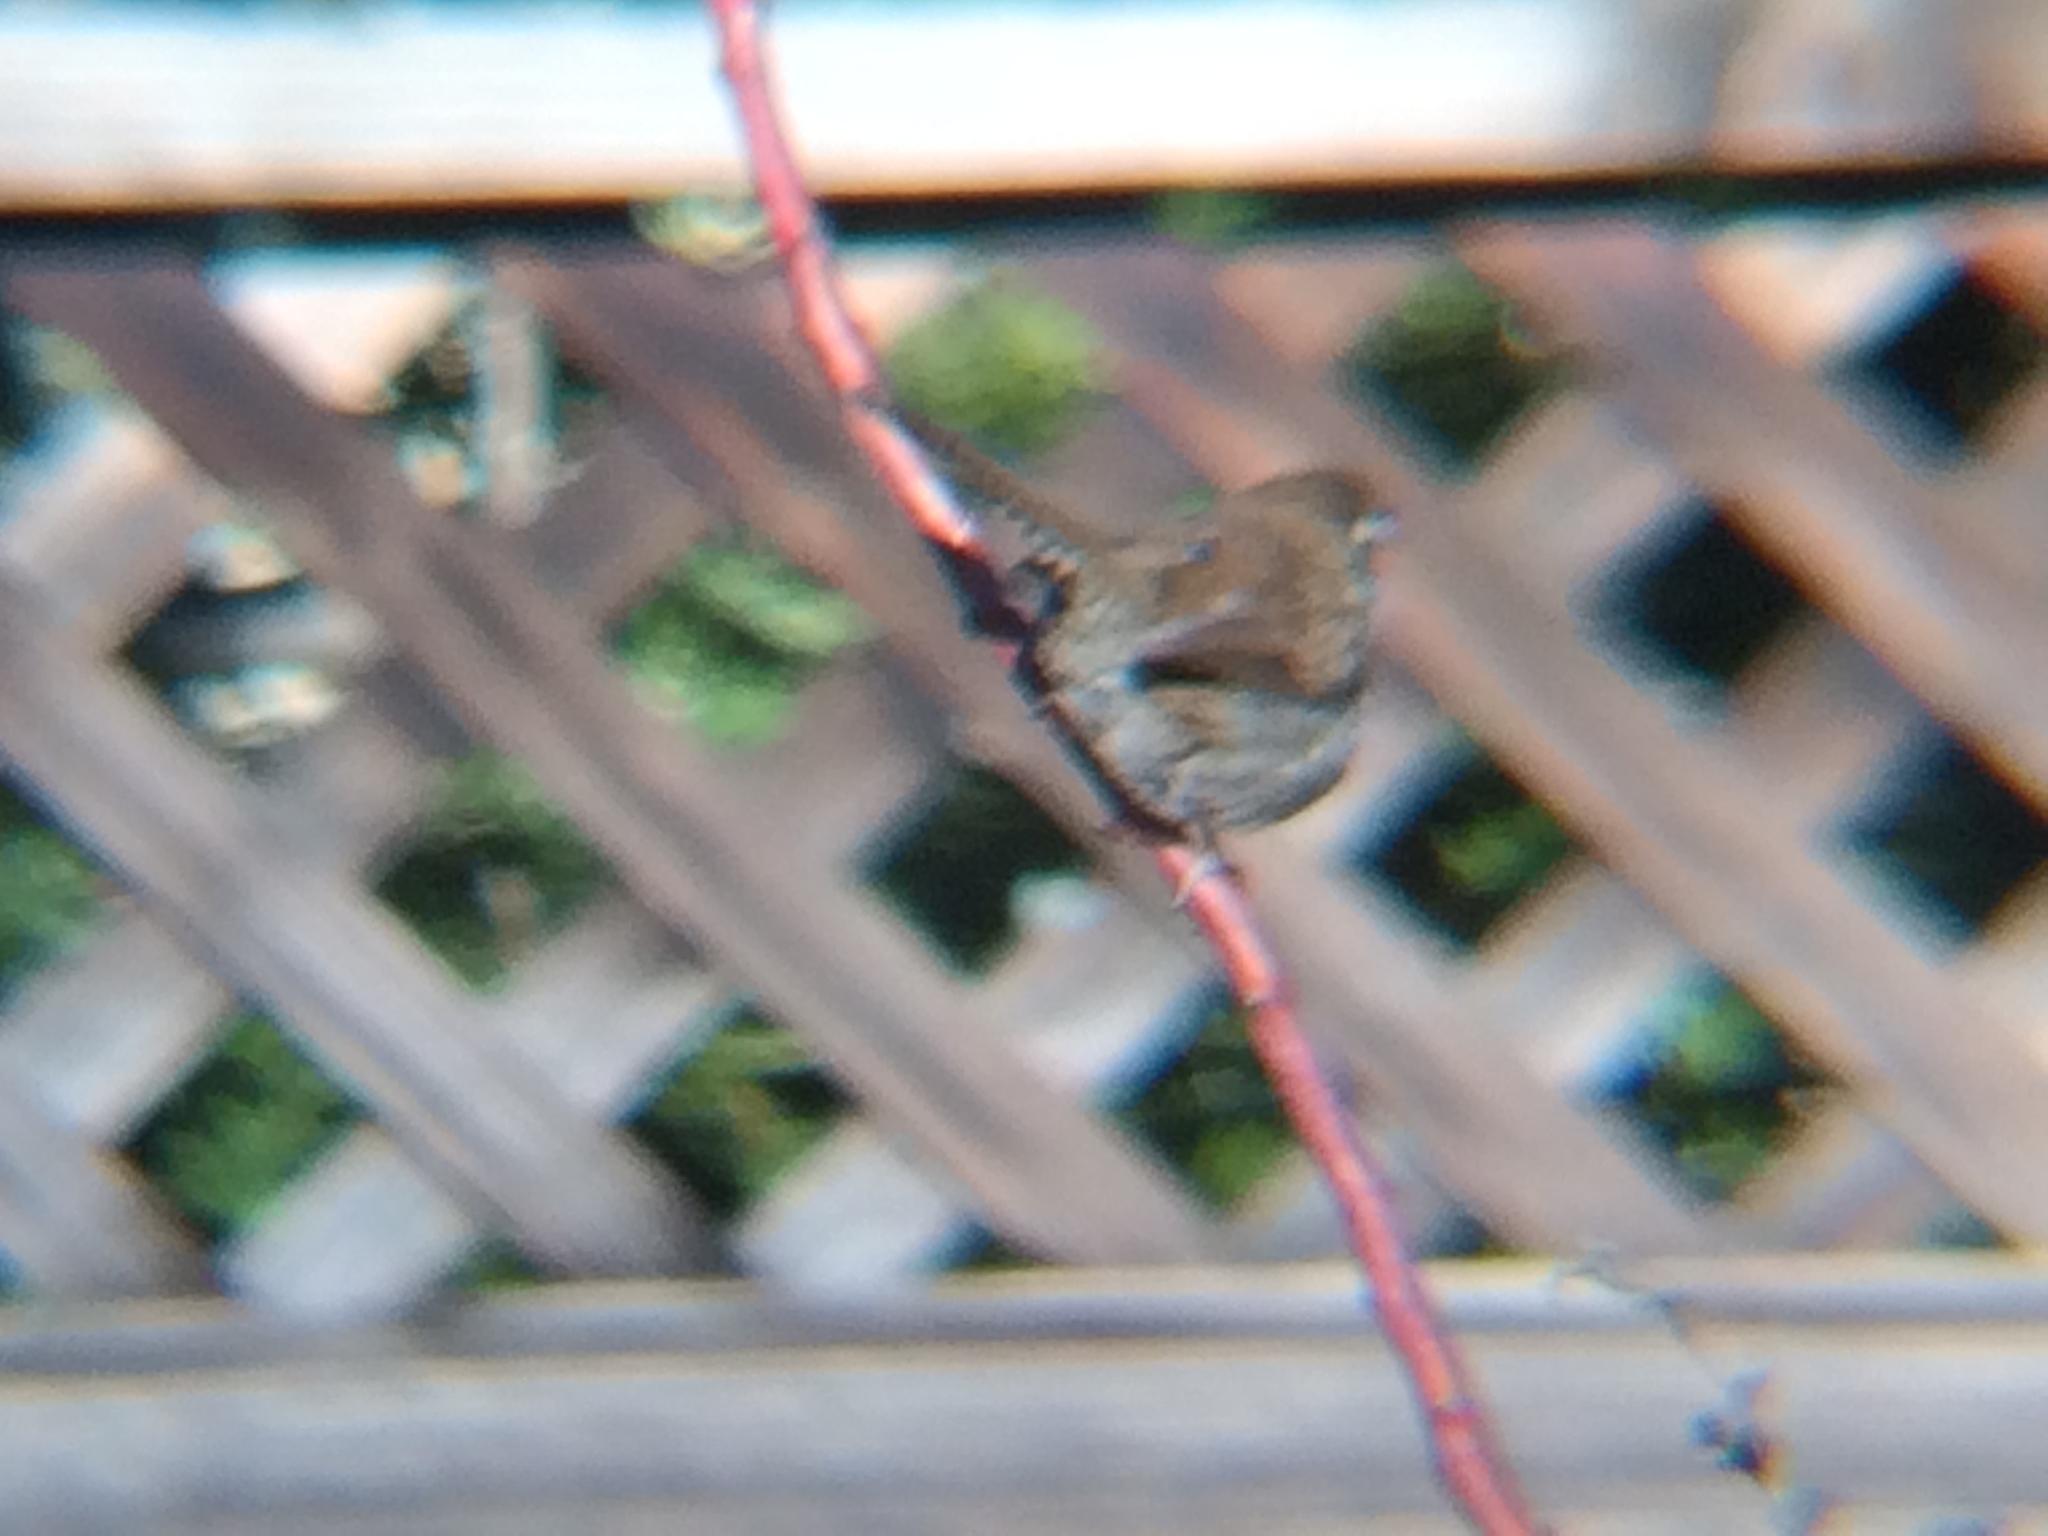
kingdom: Animalia
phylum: Chordata
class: Aves
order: Passeriformes
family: Troglodytidae
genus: Thryomanes
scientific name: Thryomanes bewickii
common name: Bewick's wren
